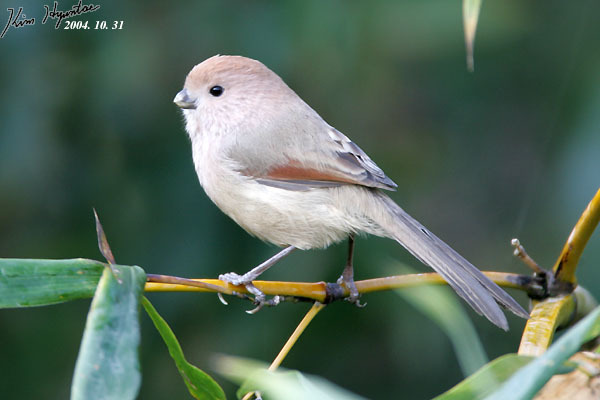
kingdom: Animalia
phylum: Chordata
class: Aves
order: Passeriformes
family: Sylviidae
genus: Sinosuthora
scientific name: Sinosuthora webbiana
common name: Vinous-throated parrotbill
